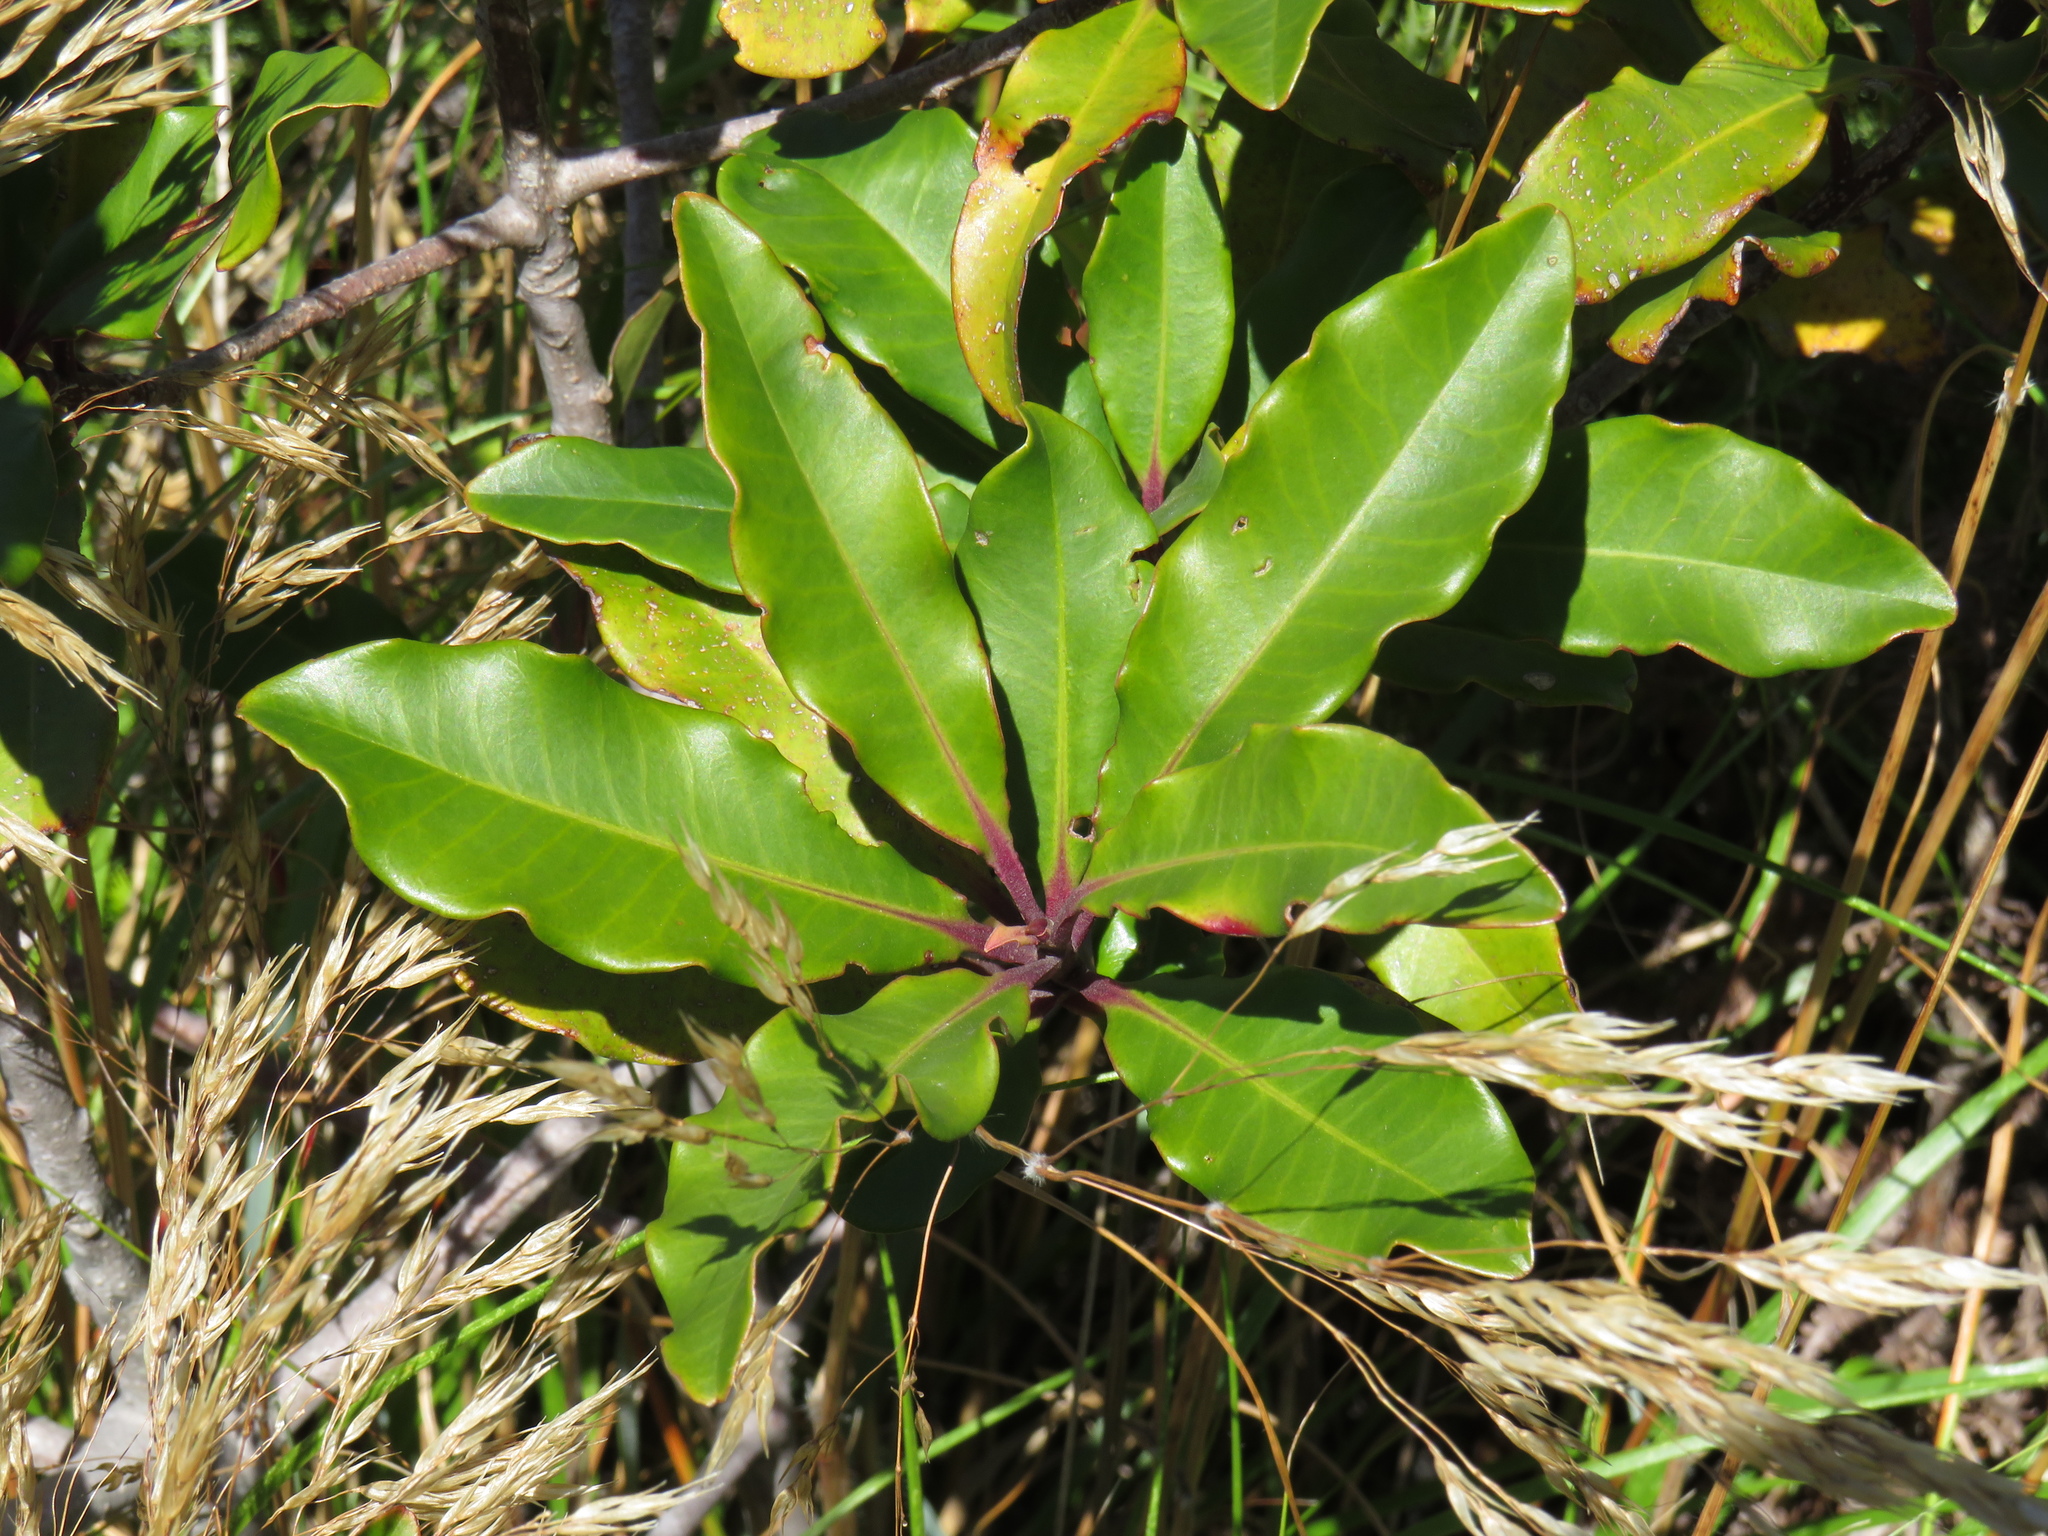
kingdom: Plantae
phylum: Tracheophyta
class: Magnoliopsida
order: Ericales
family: Primulaceae
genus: Myrsine
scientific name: Myrsine melanophloeos
